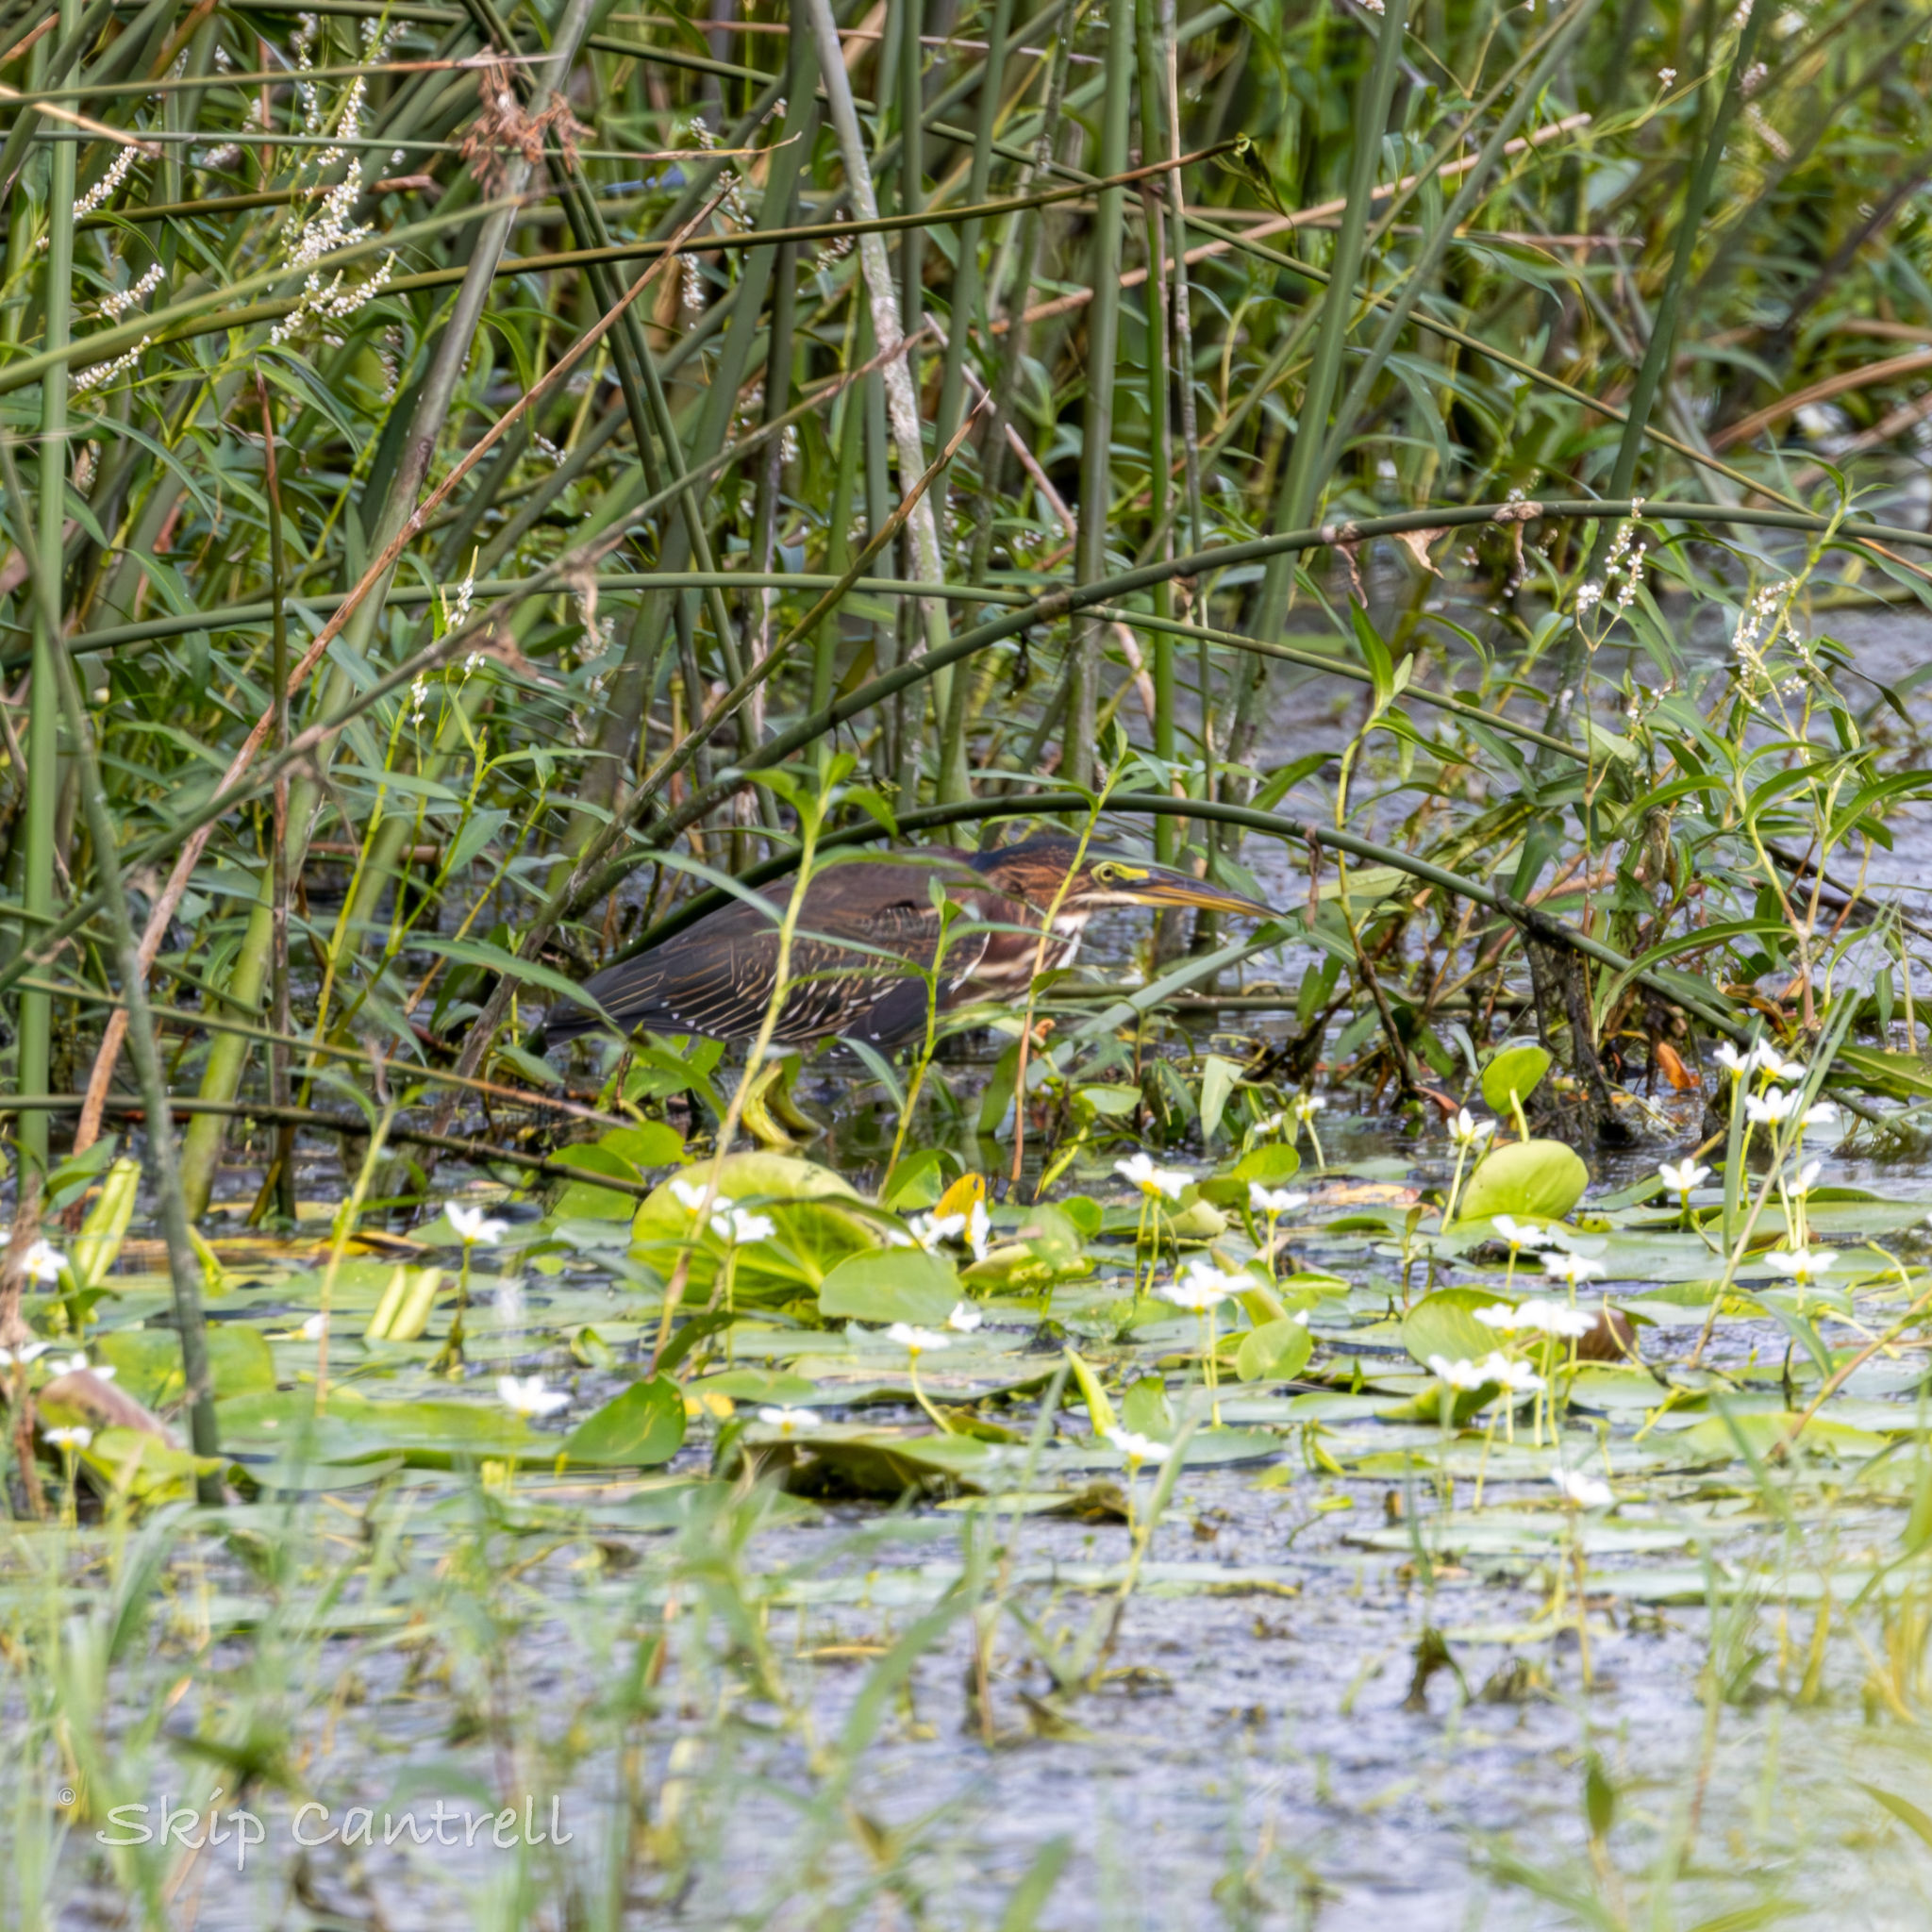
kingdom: Animalia
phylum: Chordata
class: Aves
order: Pelecaniformes
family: Ardeidae
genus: Butorides
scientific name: Butorides virescens
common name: Green heron
